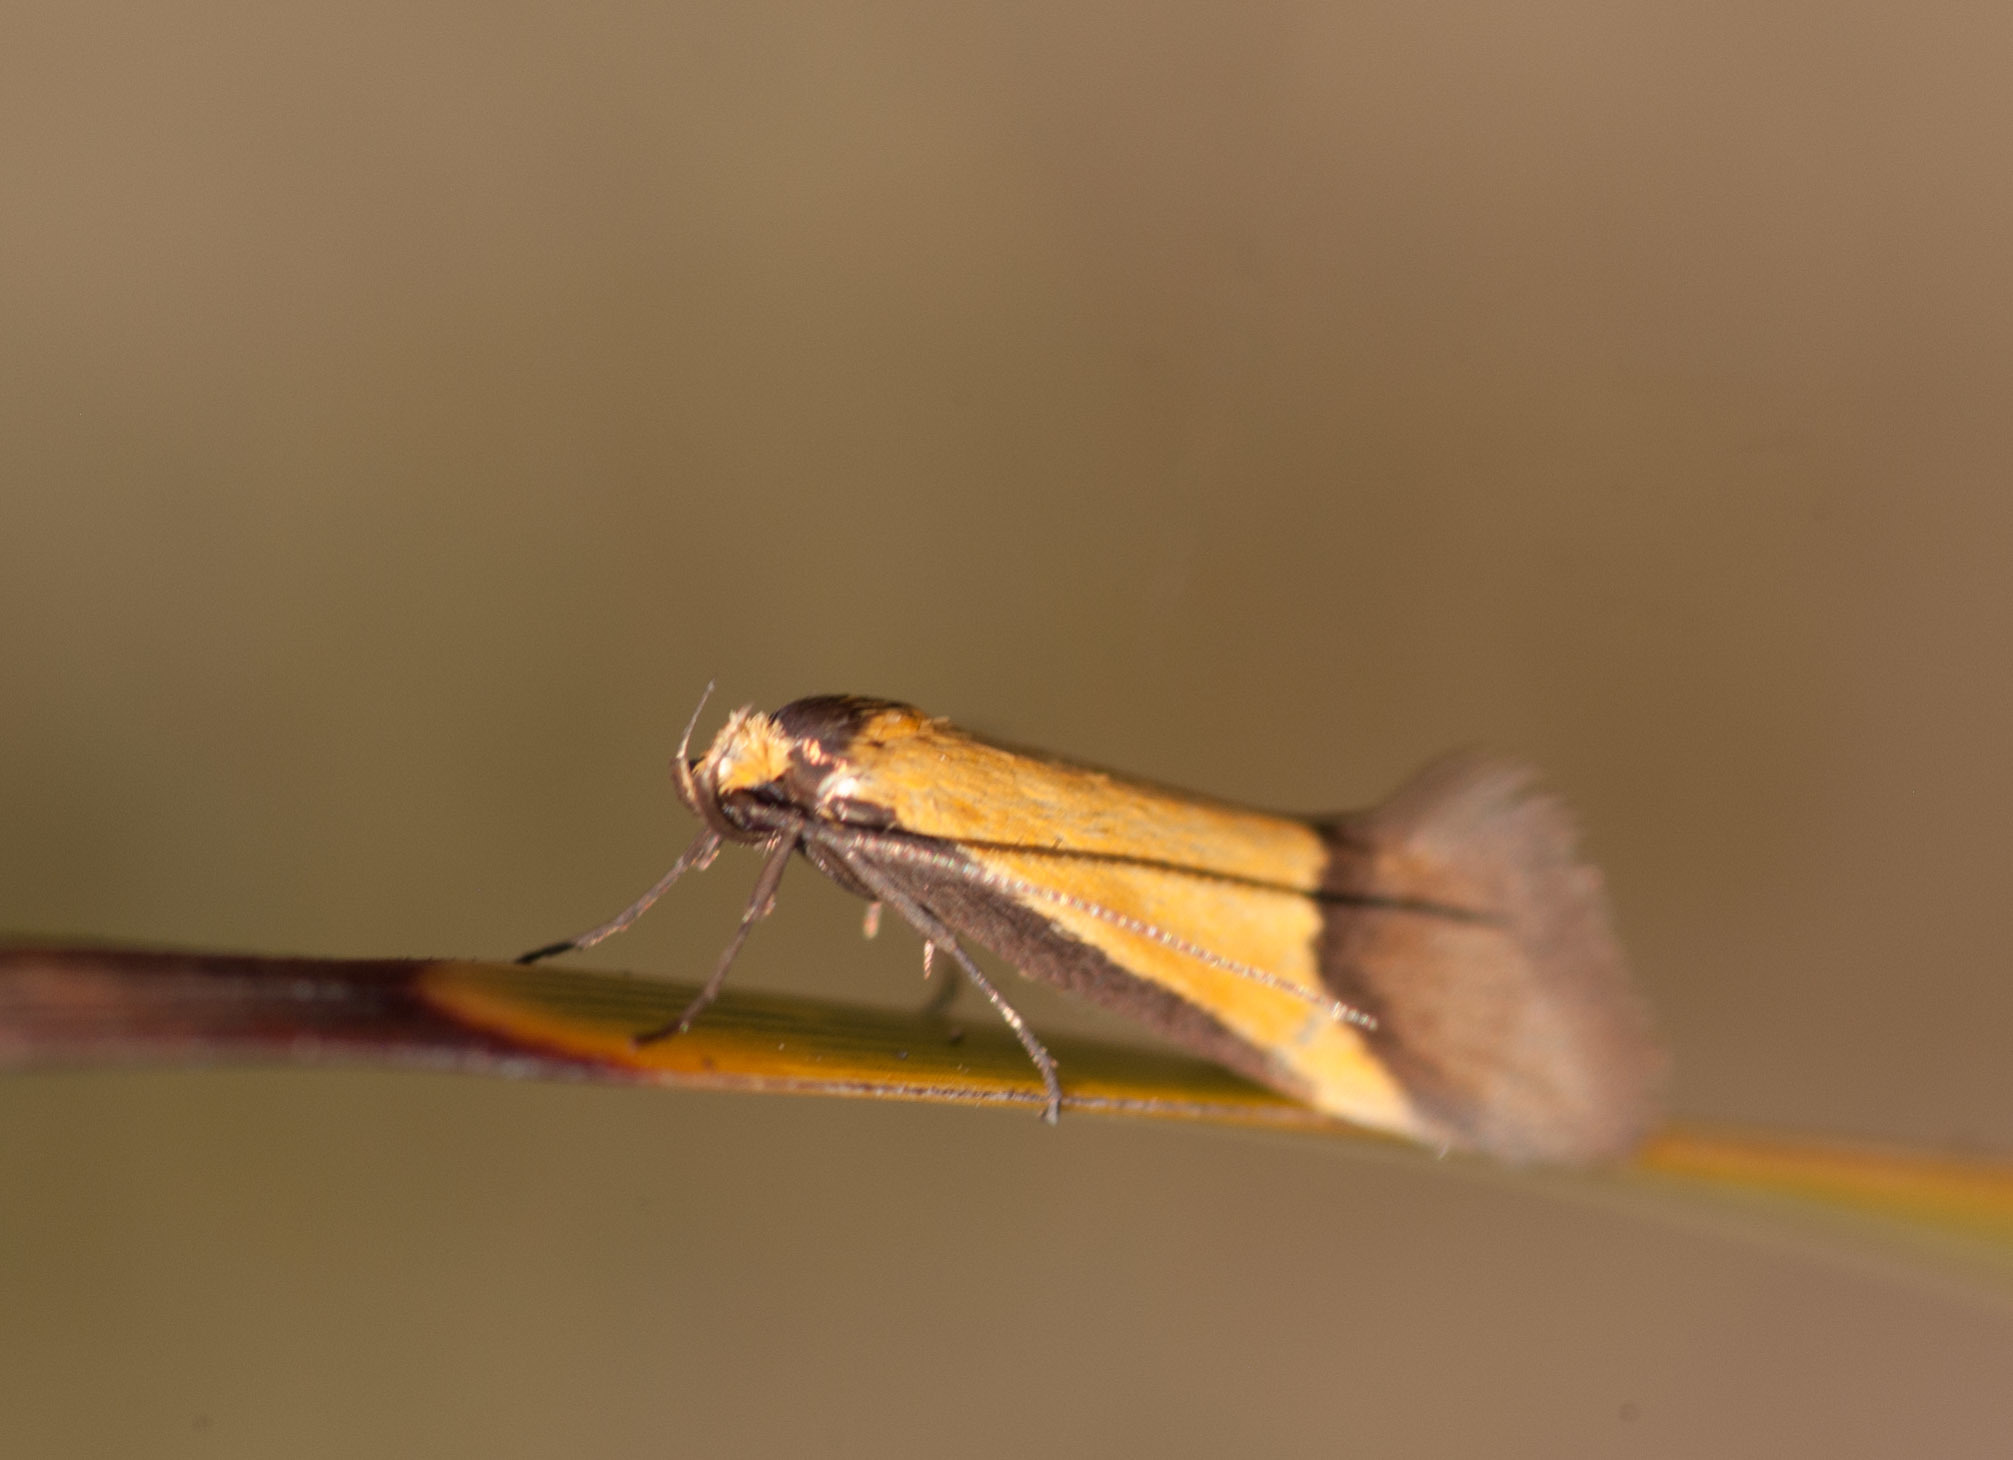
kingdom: Animalia
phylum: Arthropoda
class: Insecta
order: Lepidoptera
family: Oecophoridae
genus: Philobota
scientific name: Philobota ancylotoxa
